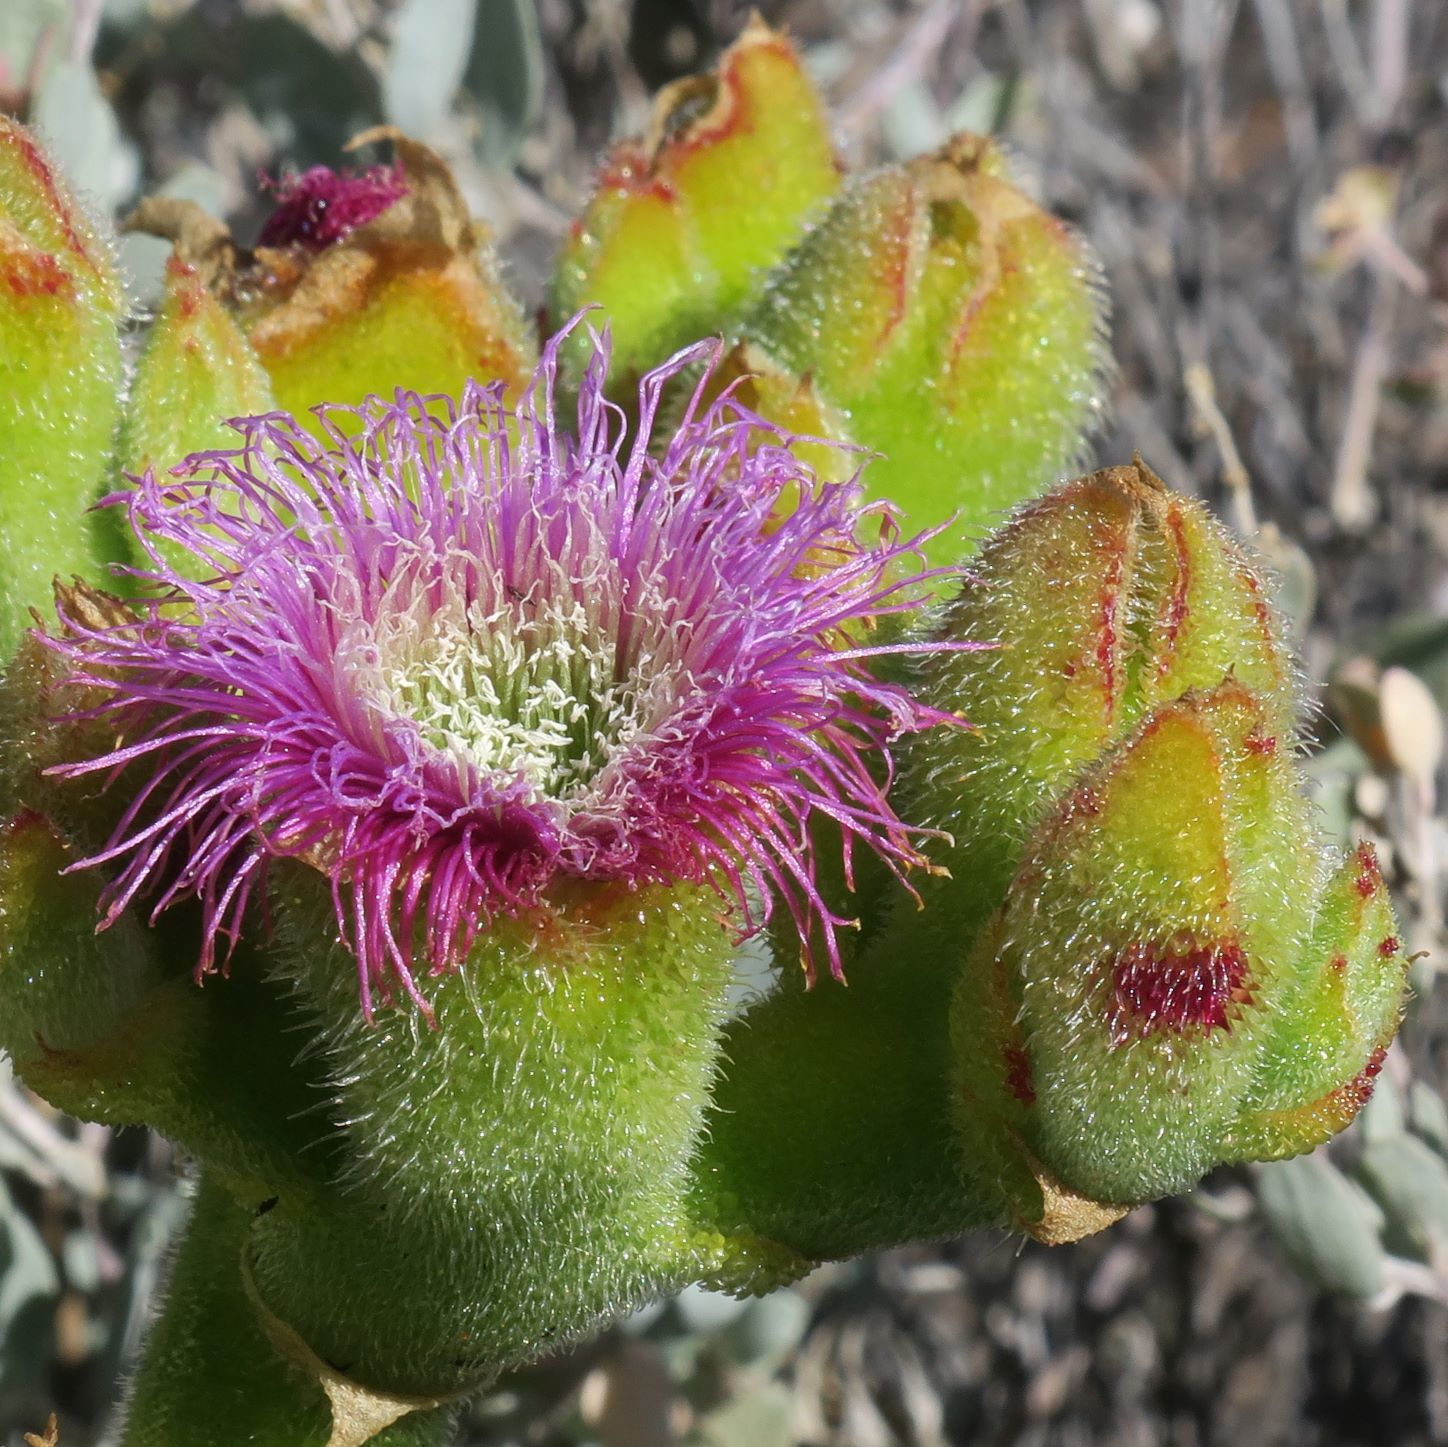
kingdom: Plantae
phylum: Tracheophyta
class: Magnoliopsida
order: Caryophyllales
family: Aizoaceae
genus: Mesembryanthemum
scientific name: Mesembryanthemum barklyi
